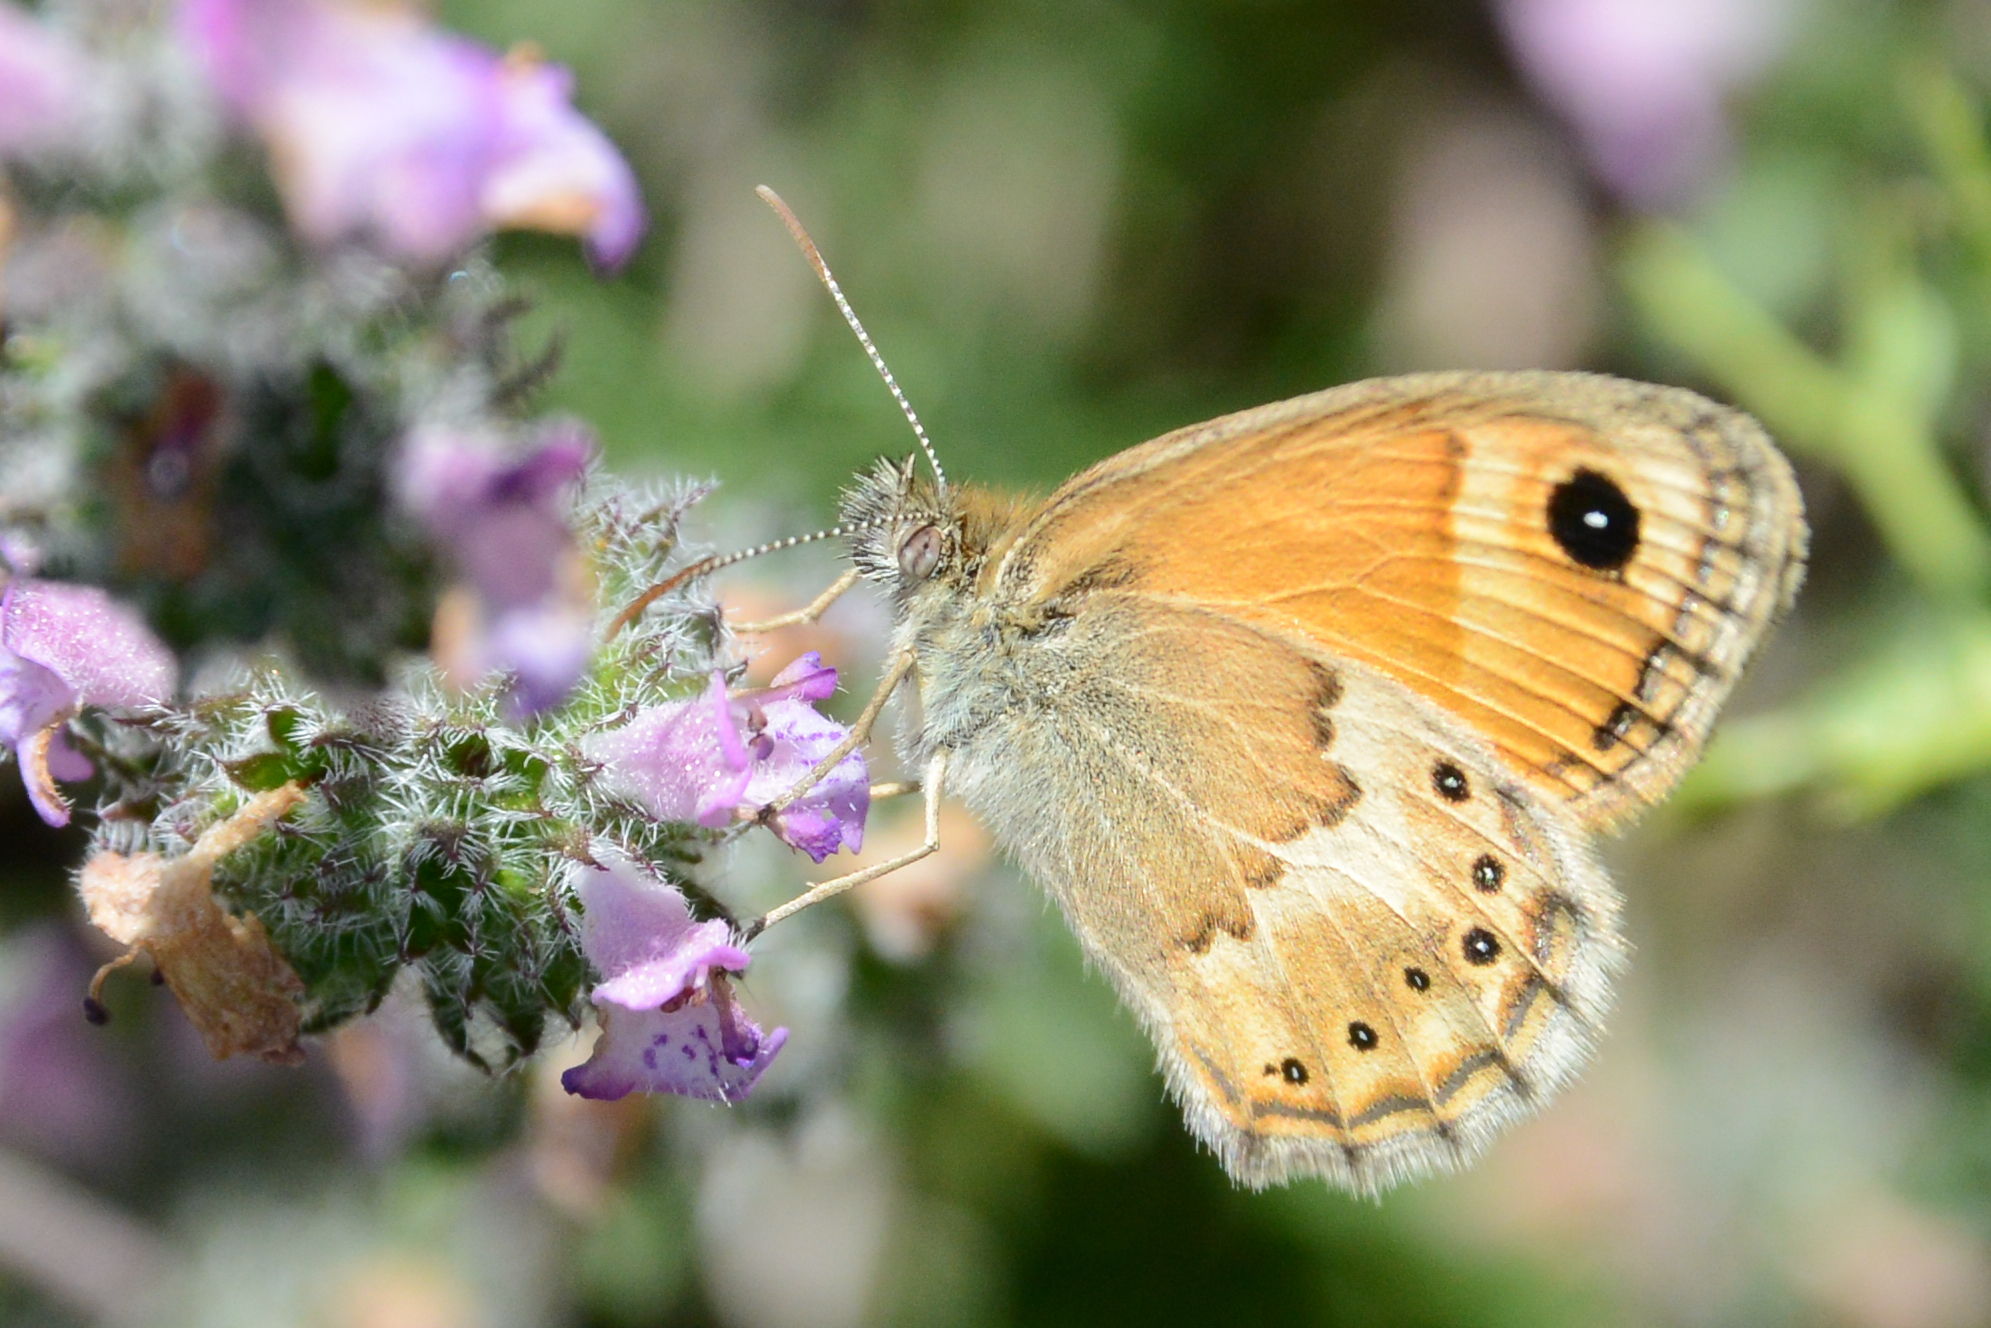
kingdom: Animalia
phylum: Arthropoda
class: Insecta
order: Lepidoptera
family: Nymphalidae
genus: Coenonympha
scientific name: Coenonympha thyrsis
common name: Cretan small heath
